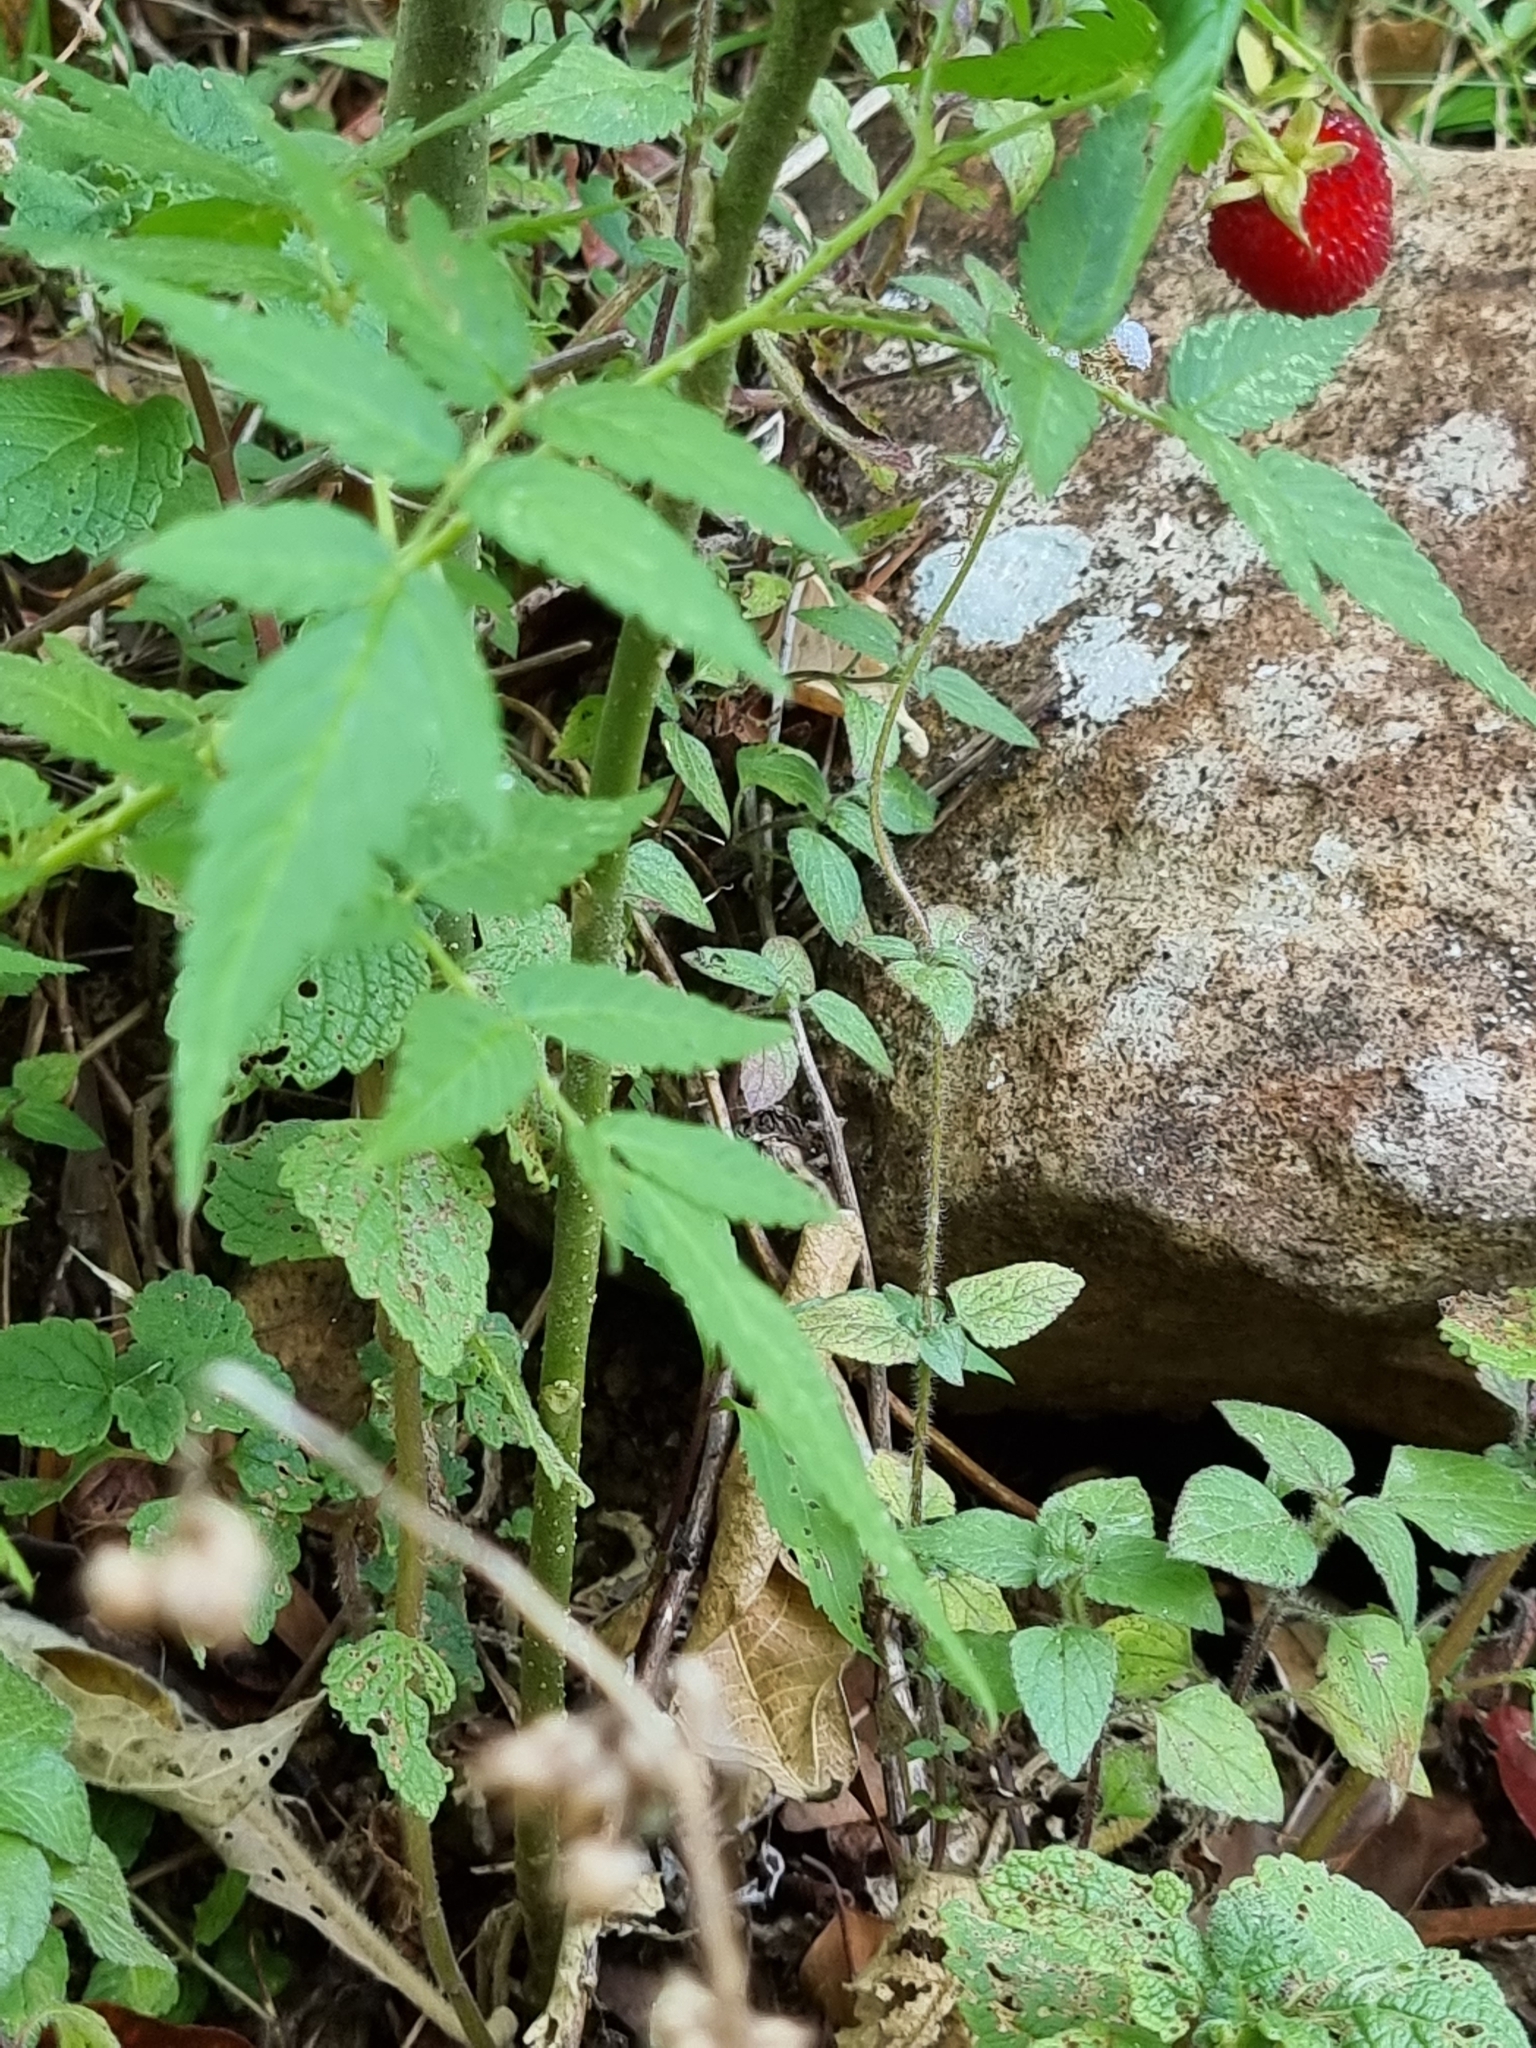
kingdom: Plantae
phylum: Tracheophyta
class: Magnoliopsida
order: Rosales
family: Rosaceae
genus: Rubus
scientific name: Rubus rosifolius
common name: Roseleaf raspberry
